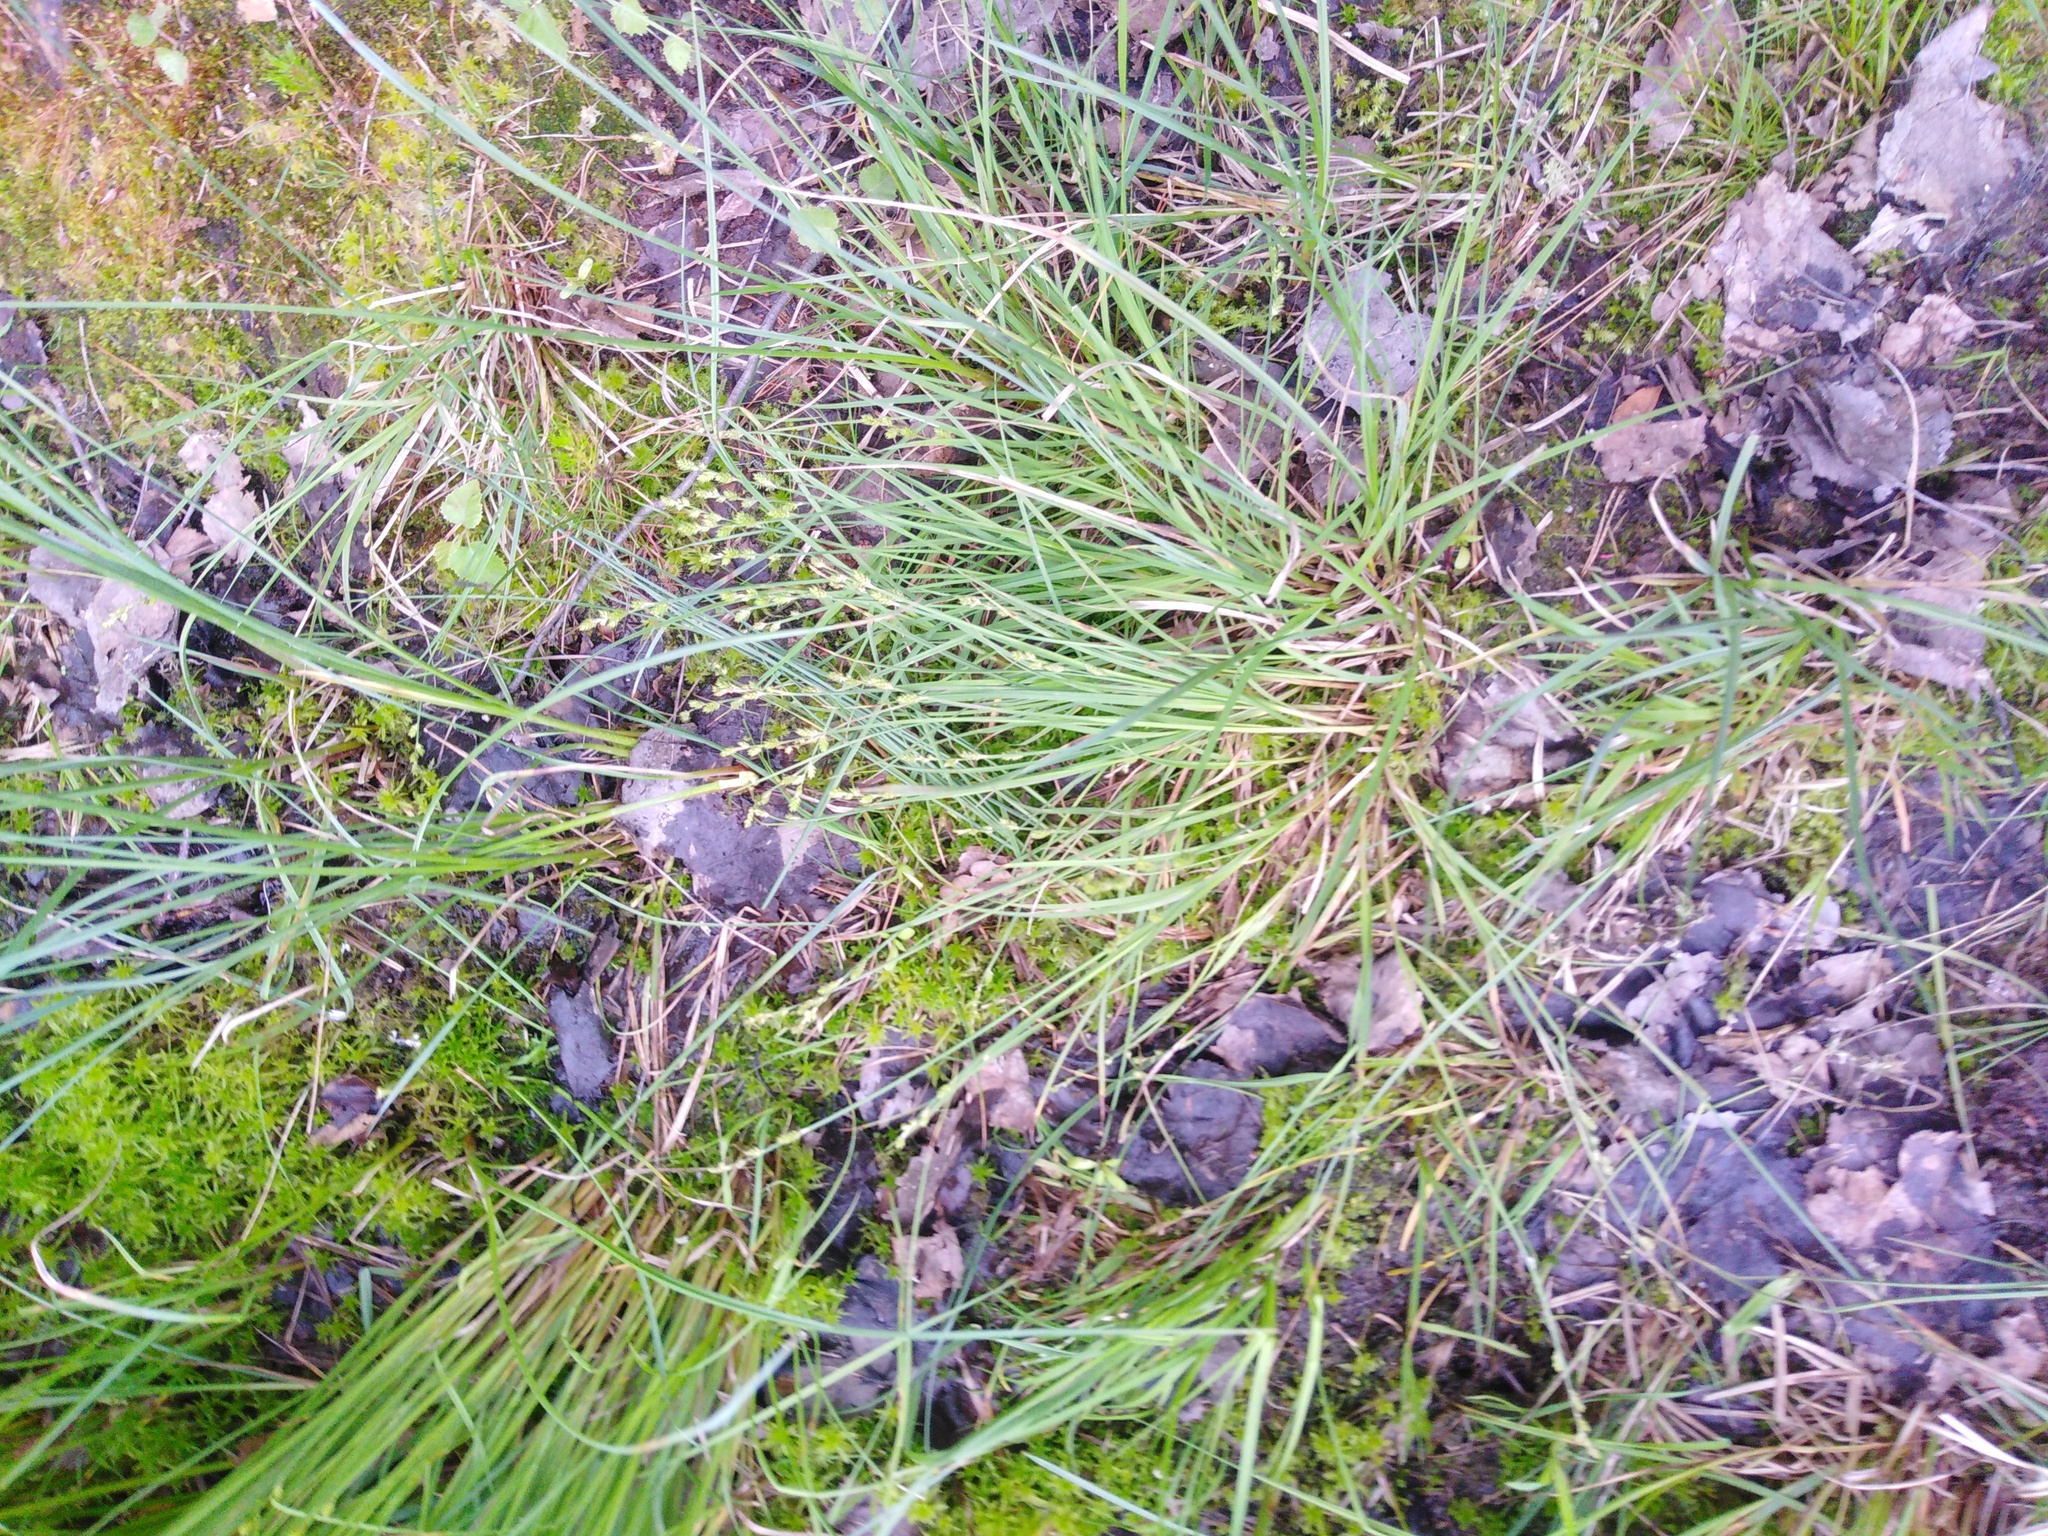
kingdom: Plantae
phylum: Tracheophyta
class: Liliopsida
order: Poales
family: Cyperaceae
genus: Carex
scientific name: Carex canescens
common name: White sedge
